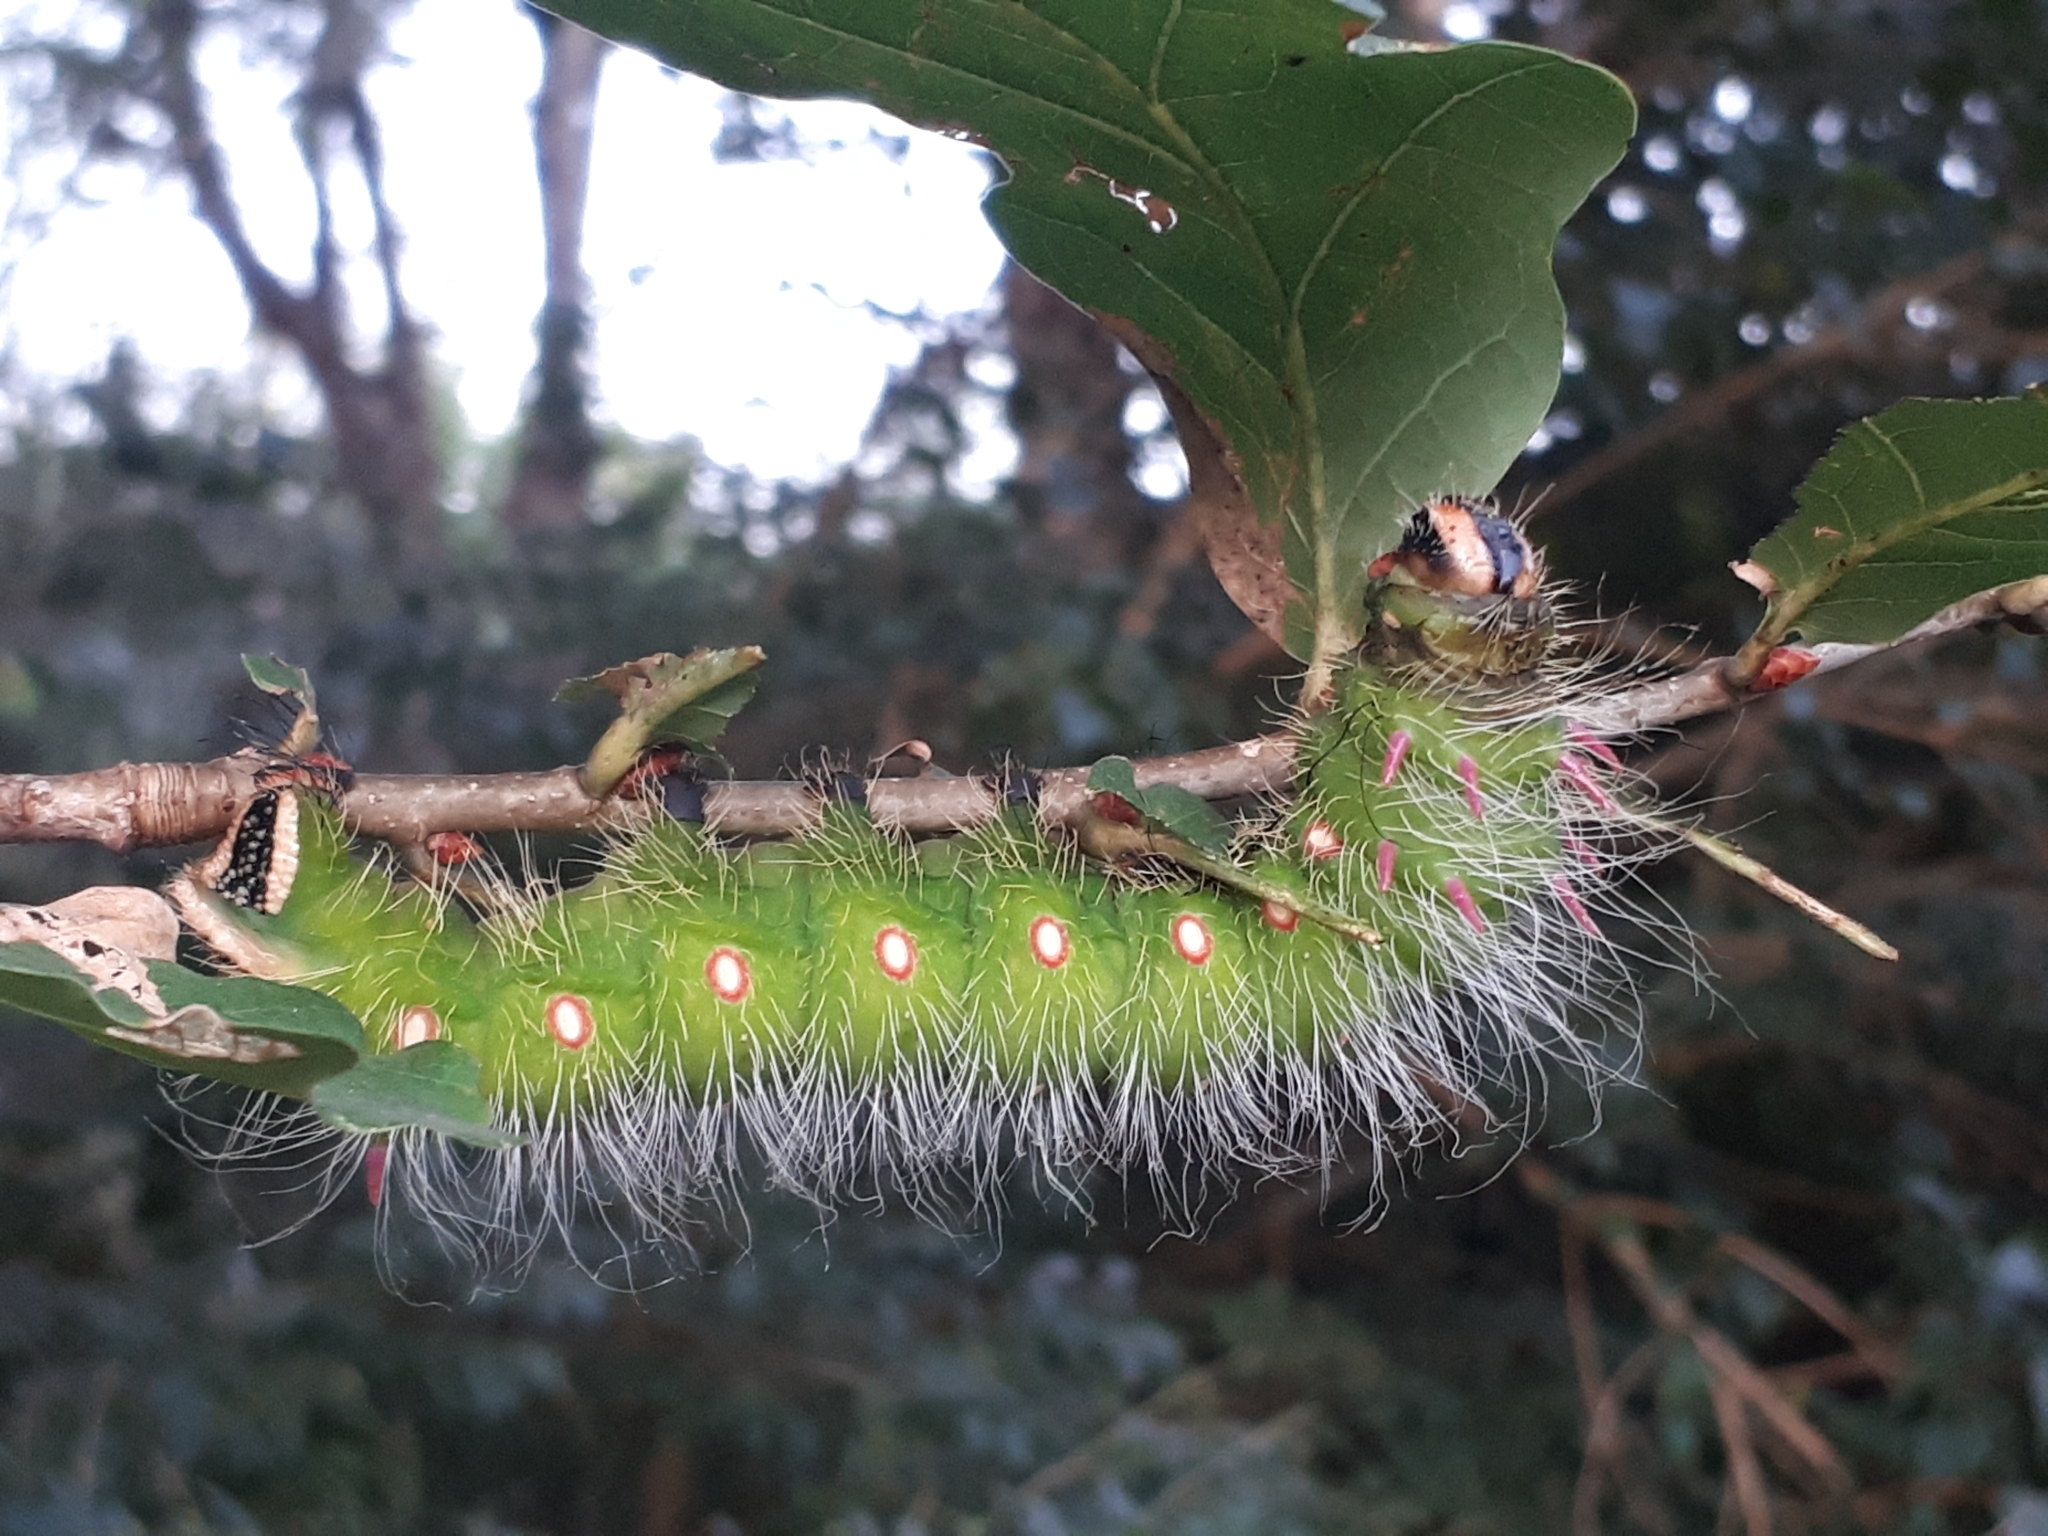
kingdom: Animalia
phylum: Arthropoda
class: Insecta
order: Lepidoptera
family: Saturniidae
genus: Eacles
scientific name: Eacles imperialis
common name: Imperial moth
